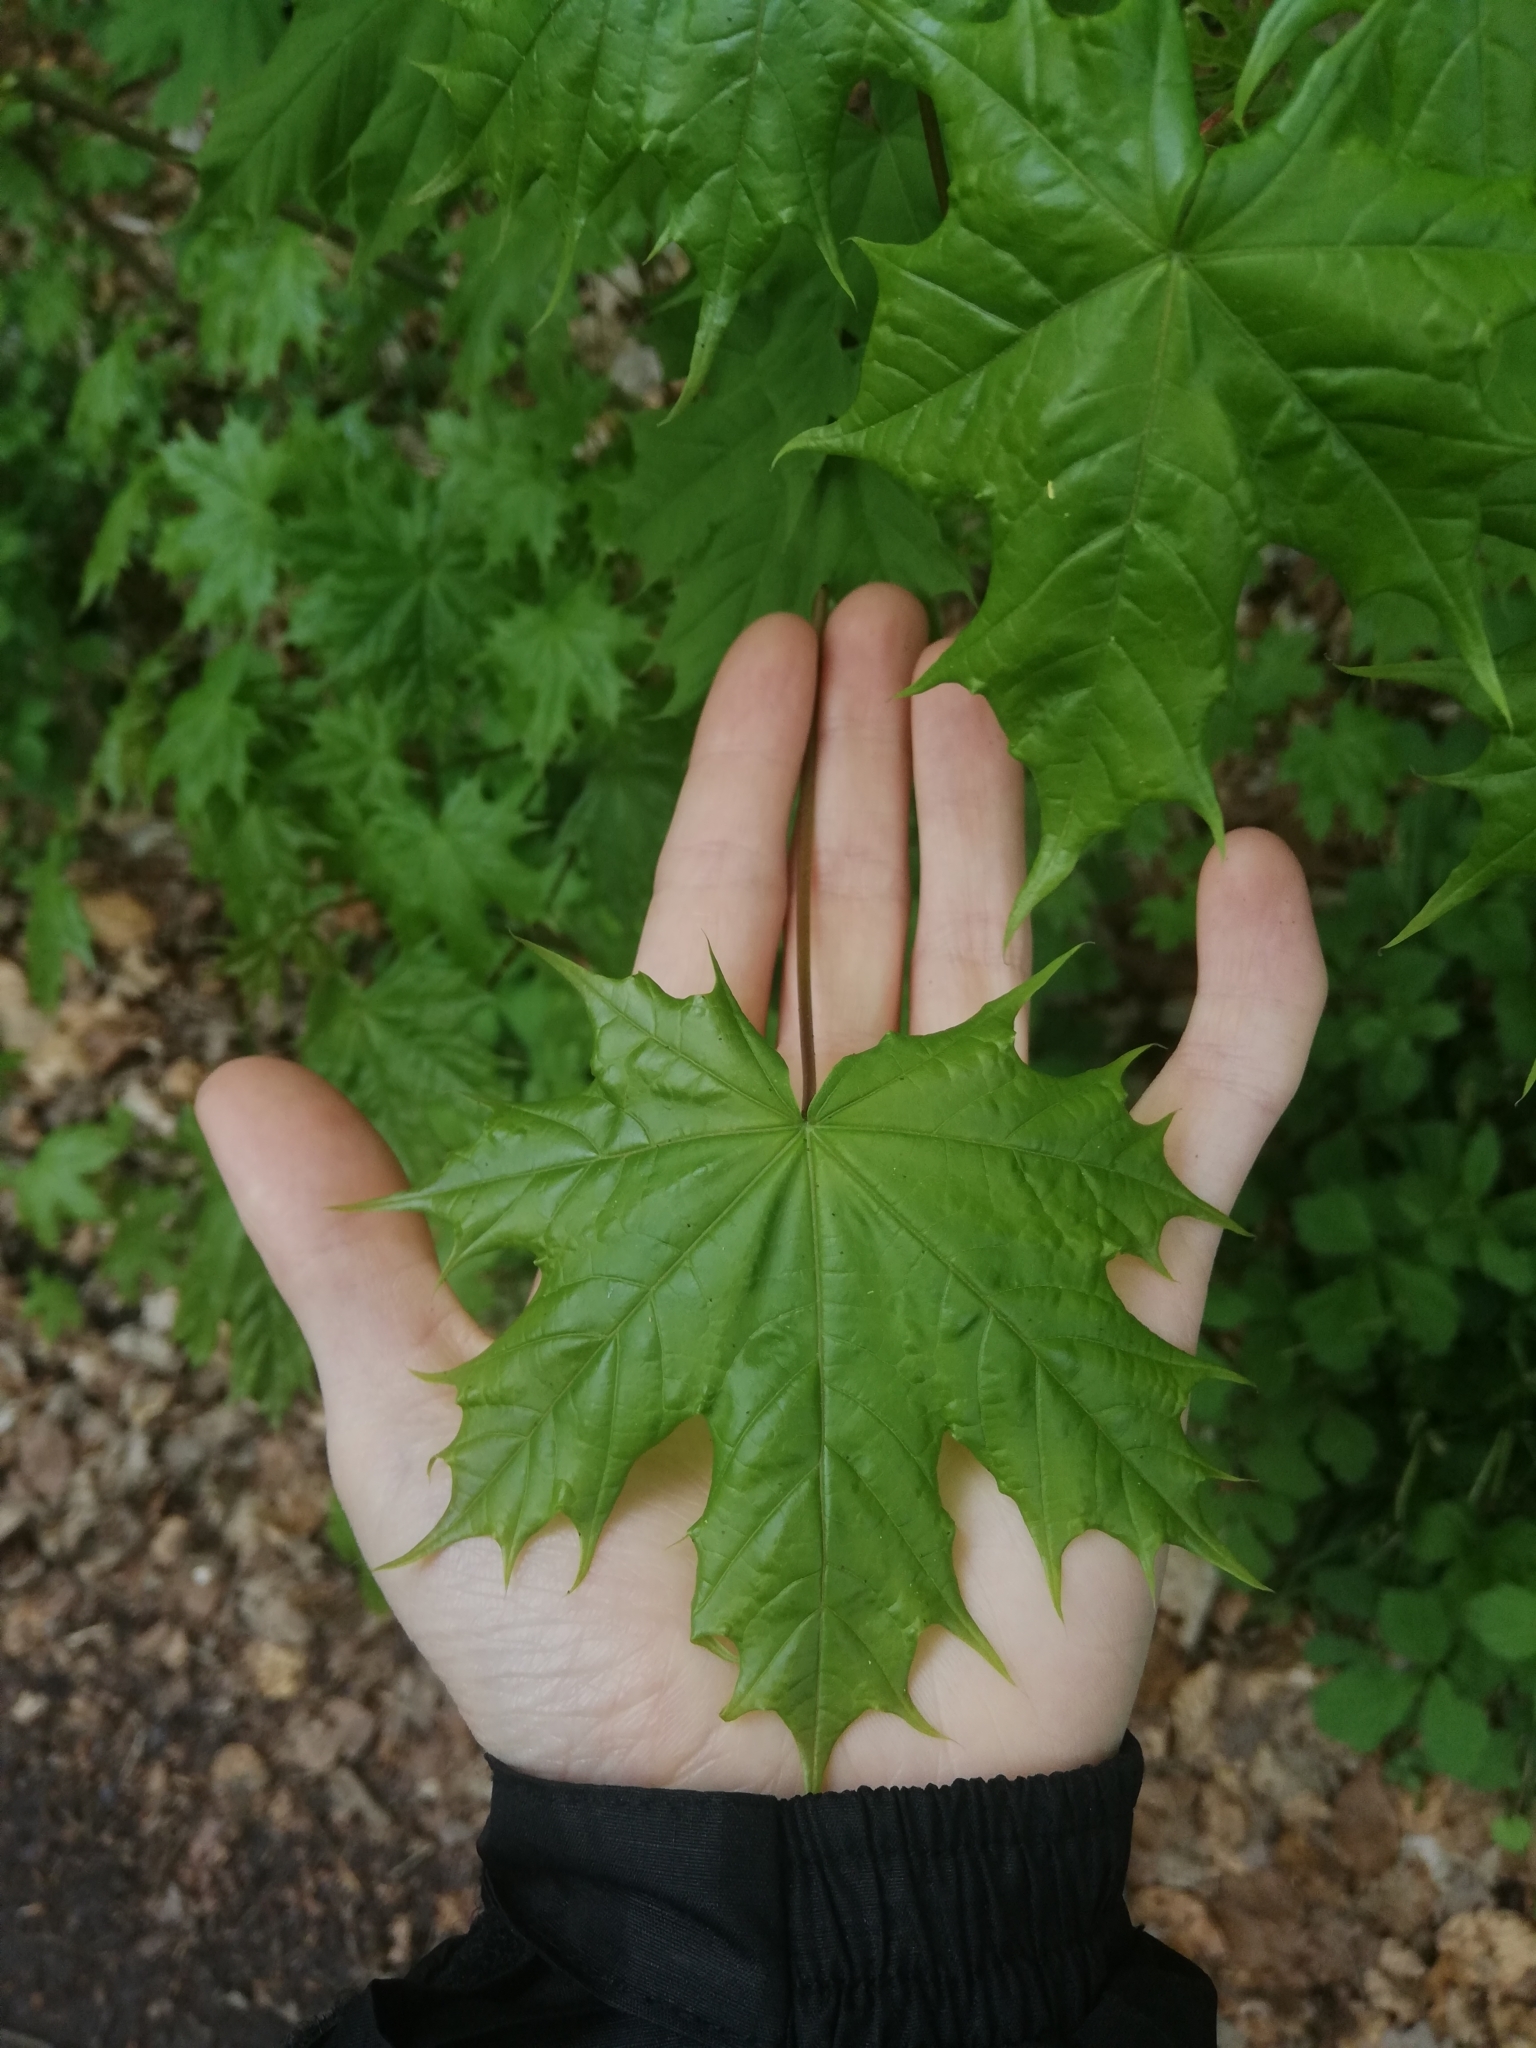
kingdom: Plantae
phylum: Tracheophyta
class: Magnoliopsida
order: Sapindales
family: Sapindaceae
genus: Acer
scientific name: Acer platanoides
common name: Norway maple
